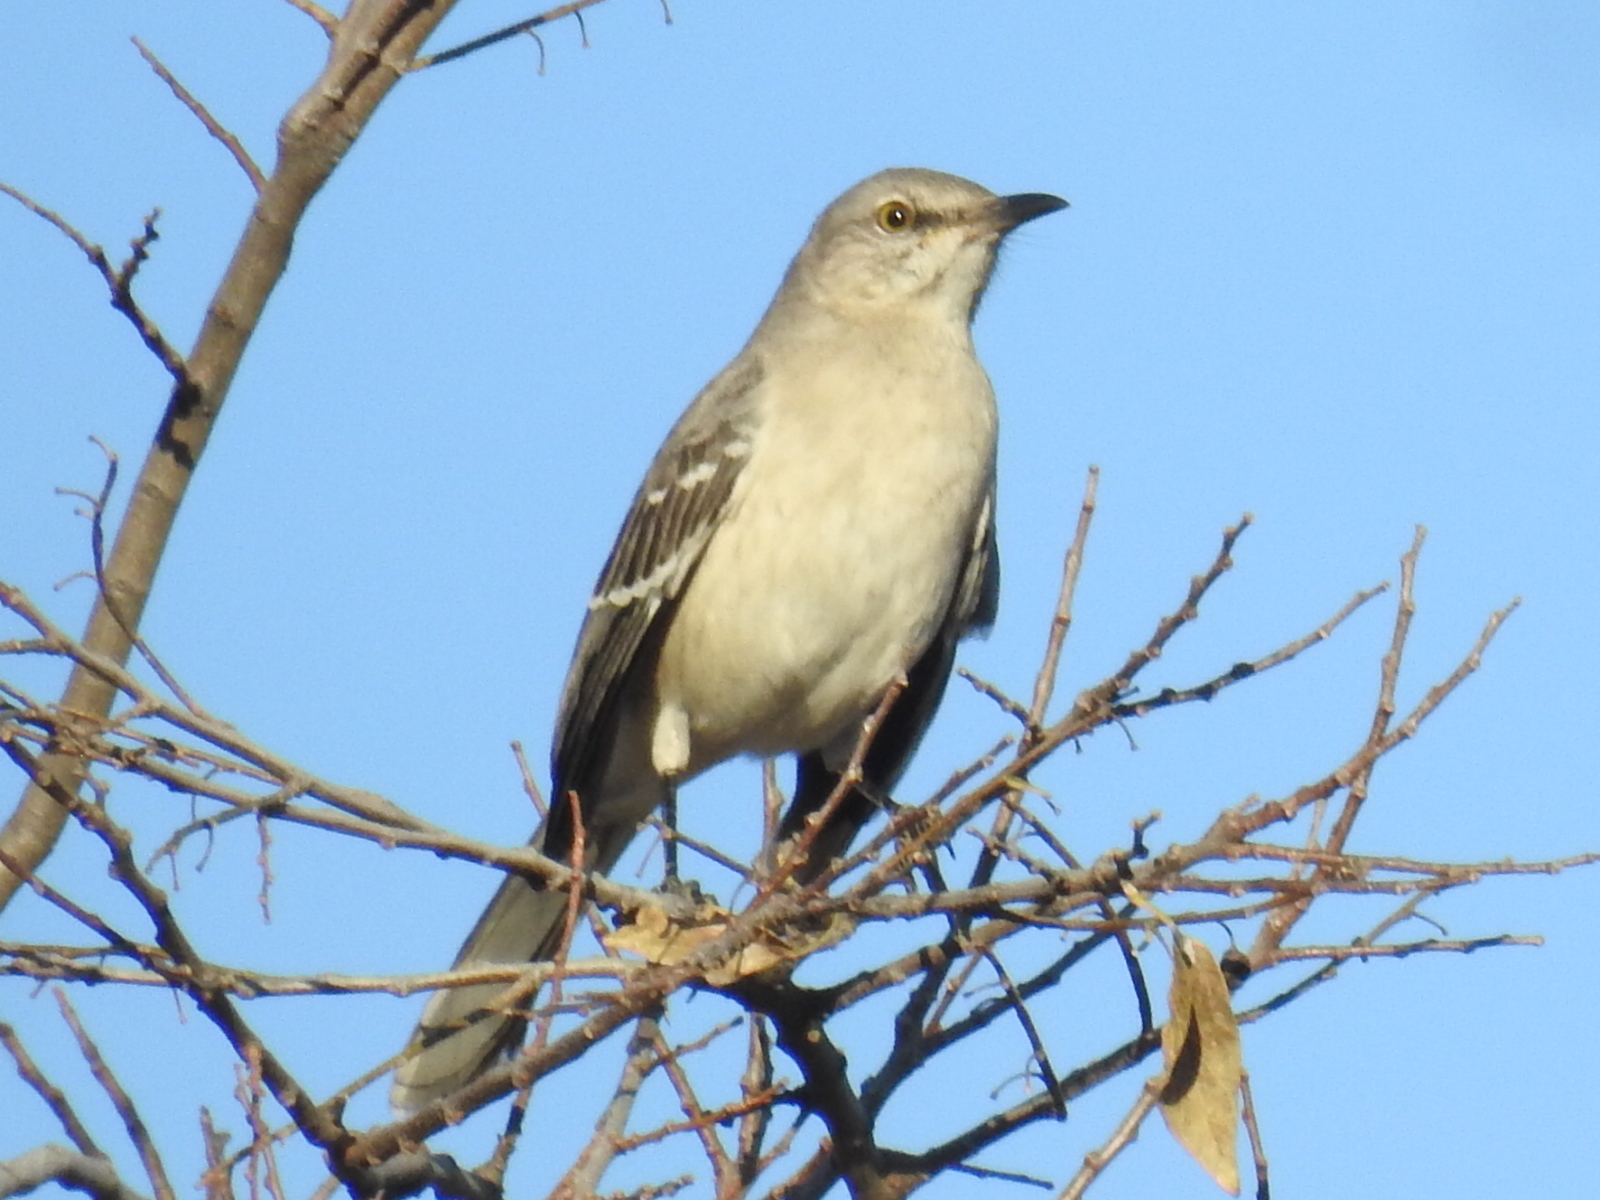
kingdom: Animalia
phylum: Chordata
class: Aves
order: Passeriformes
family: Mimidae
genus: Mimus
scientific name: Mimus polyglottos
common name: Northern mockingbird
